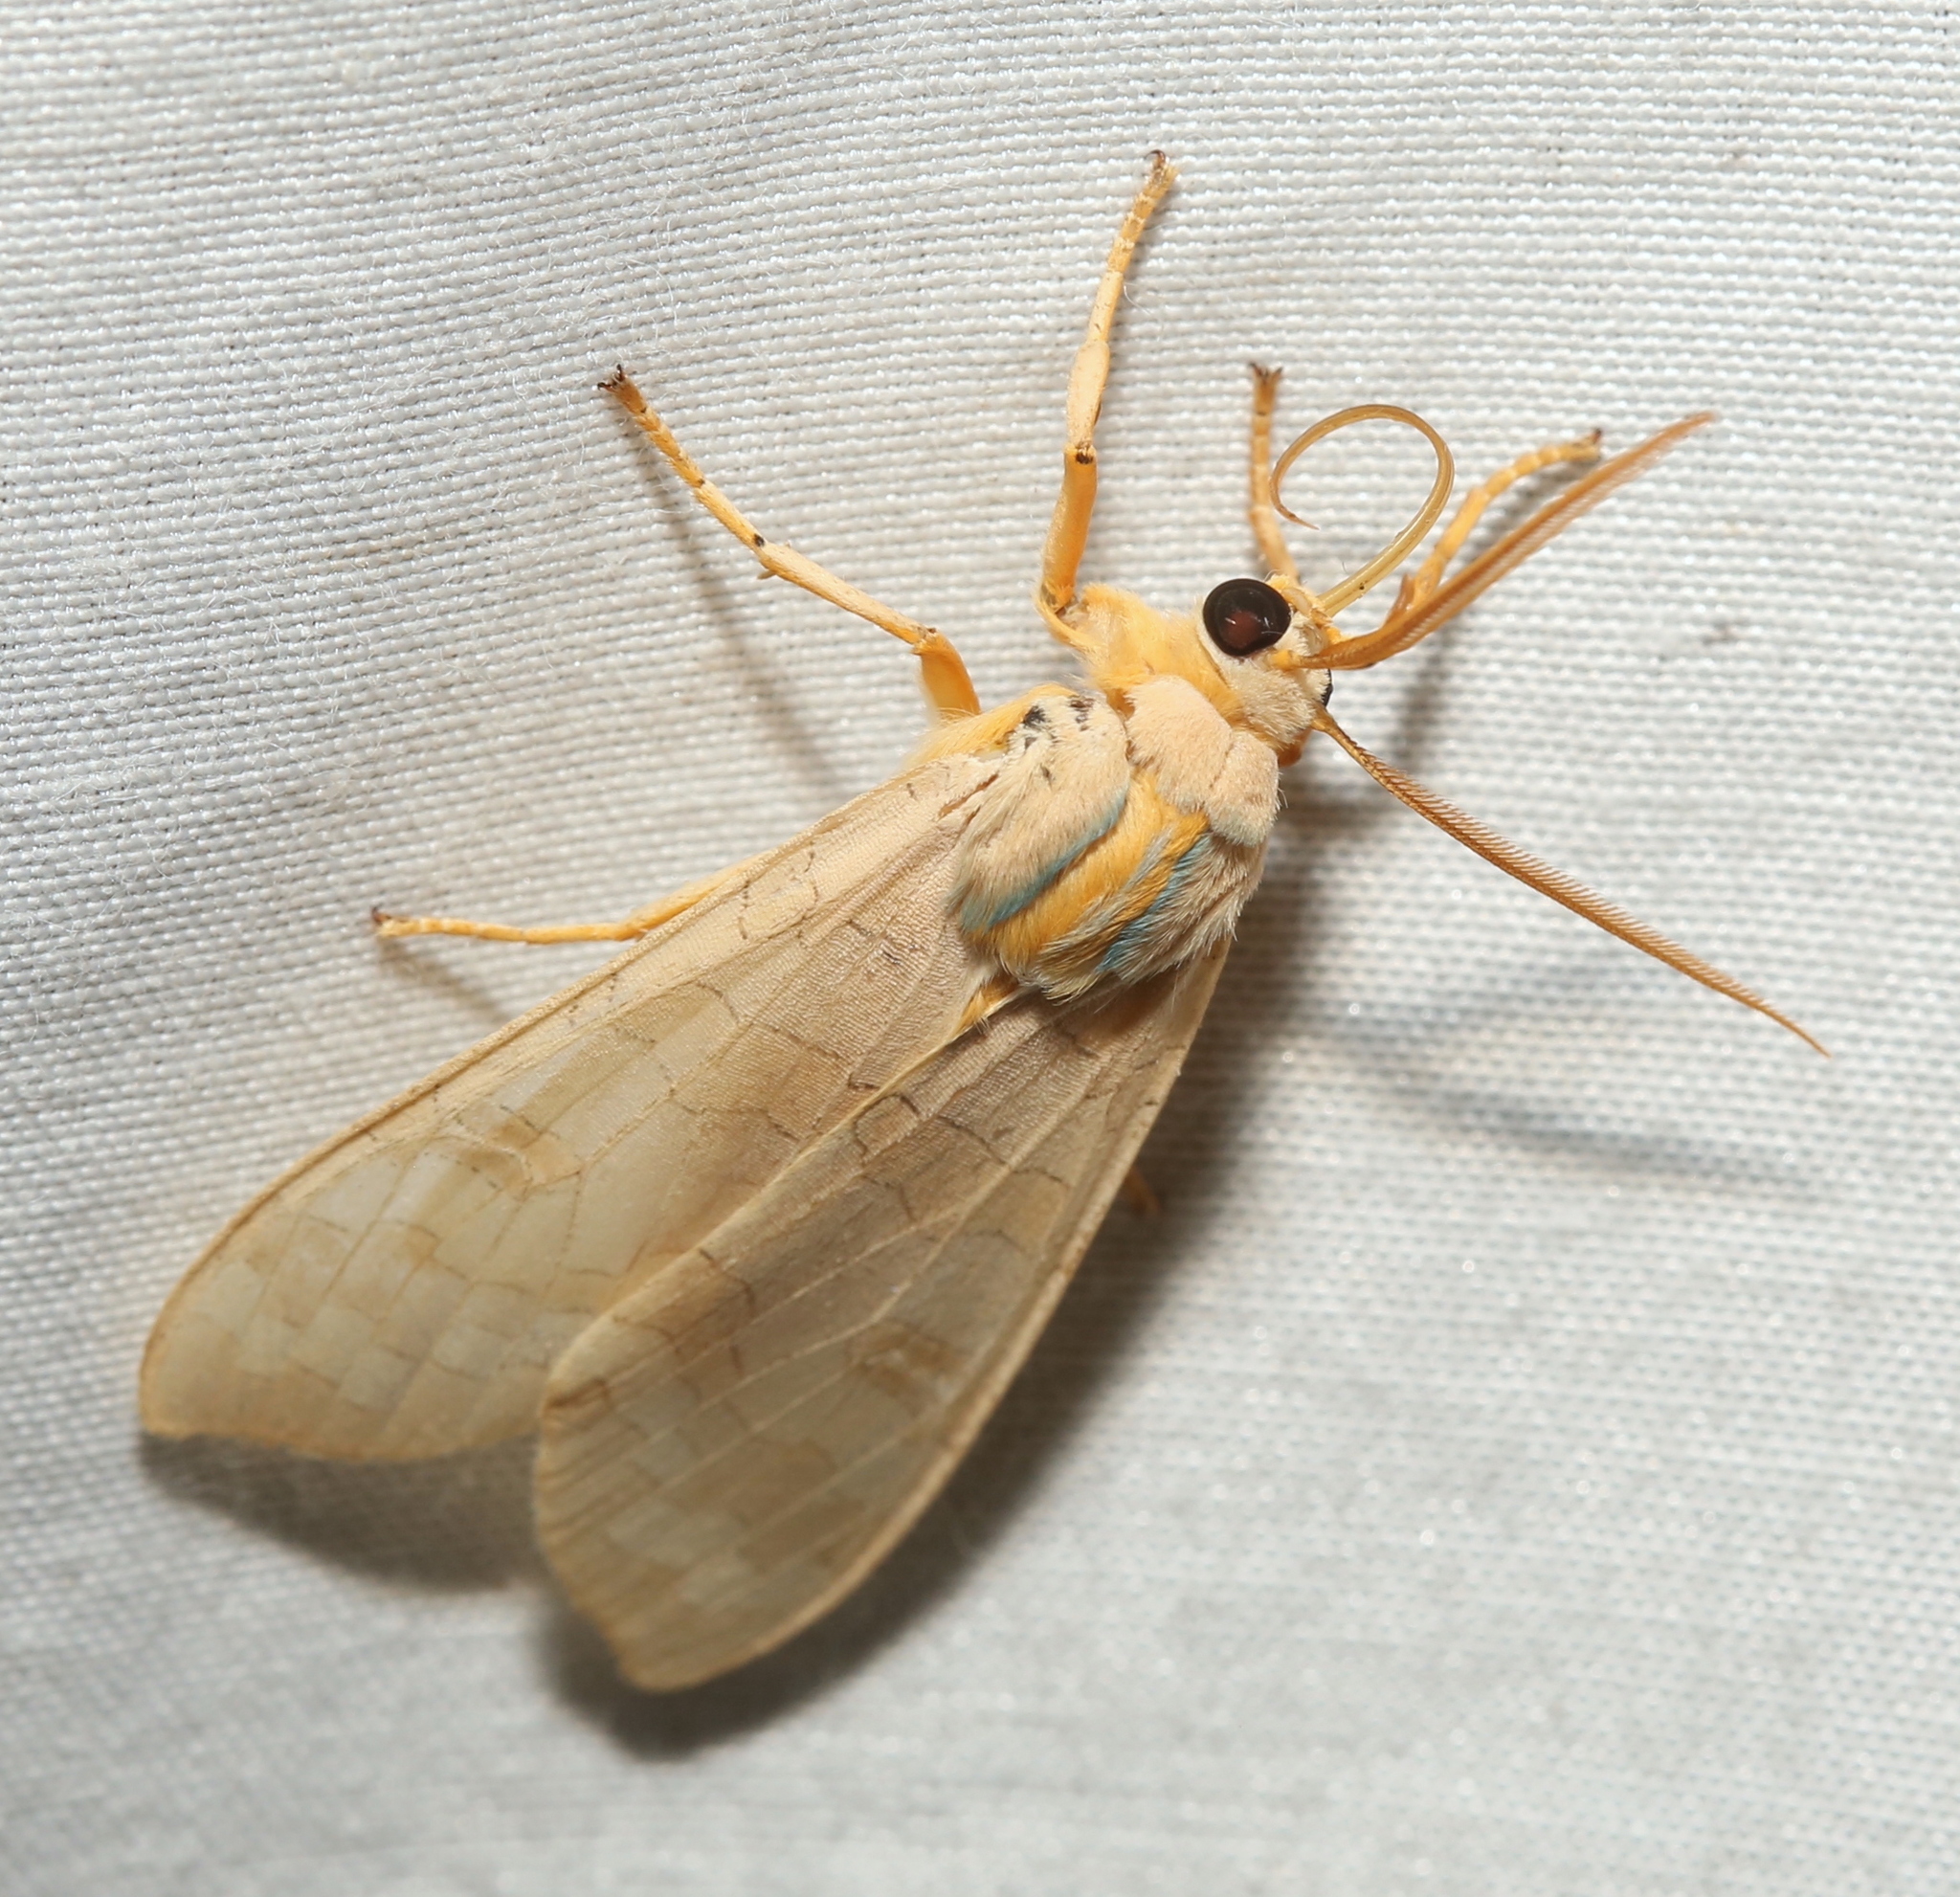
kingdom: Animalia
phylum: Arthropoda
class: Insecta
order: Lepidoptera
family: Erebidae
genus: Halysidota
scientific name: Halysidota
